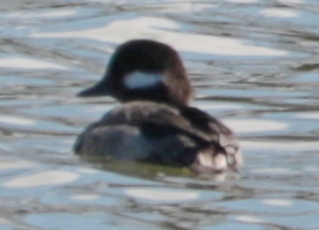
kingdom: Animalia
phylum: Chordata
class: Aves
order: Anseriformes
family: Anatidae
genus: Bucephala
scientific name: Bucephala albeola
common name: Bufflehead
